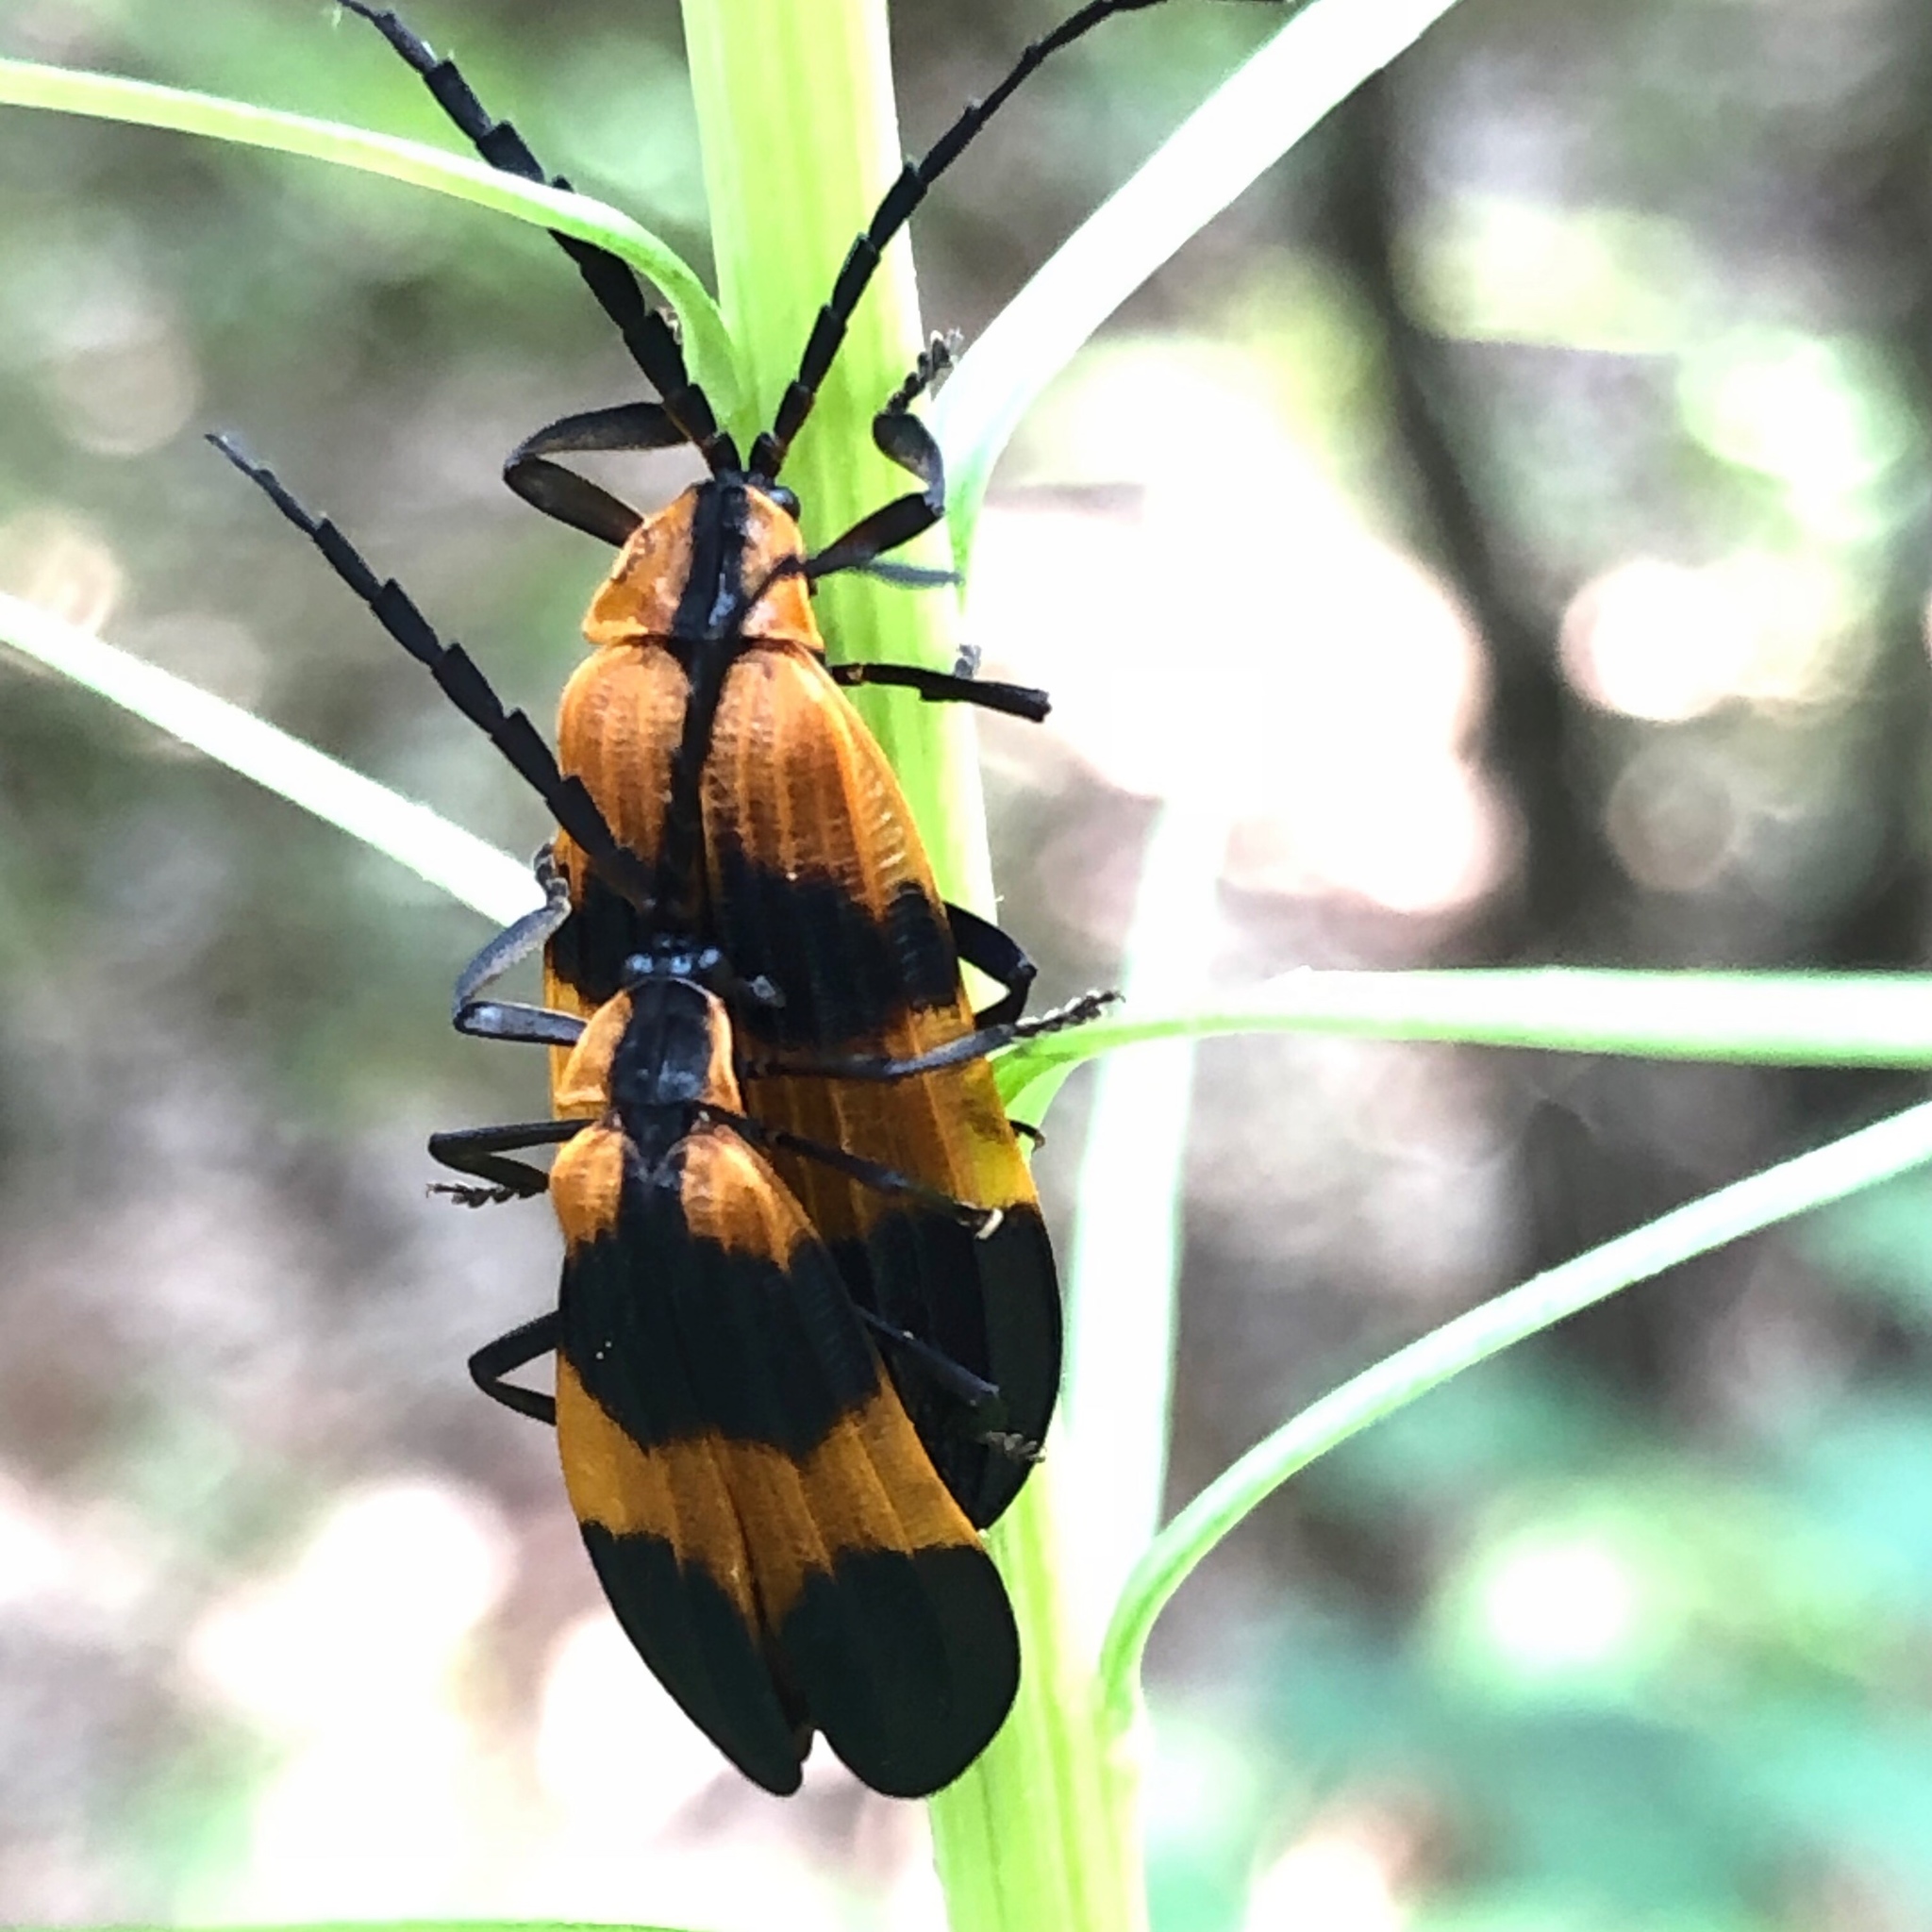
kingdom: Animalia
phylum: Arthropoda
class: Insecta
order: Coleoptera
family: Lycidae
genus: Calopteron
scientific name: Calopteron reticulatum
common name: Banded net-winged beetle
